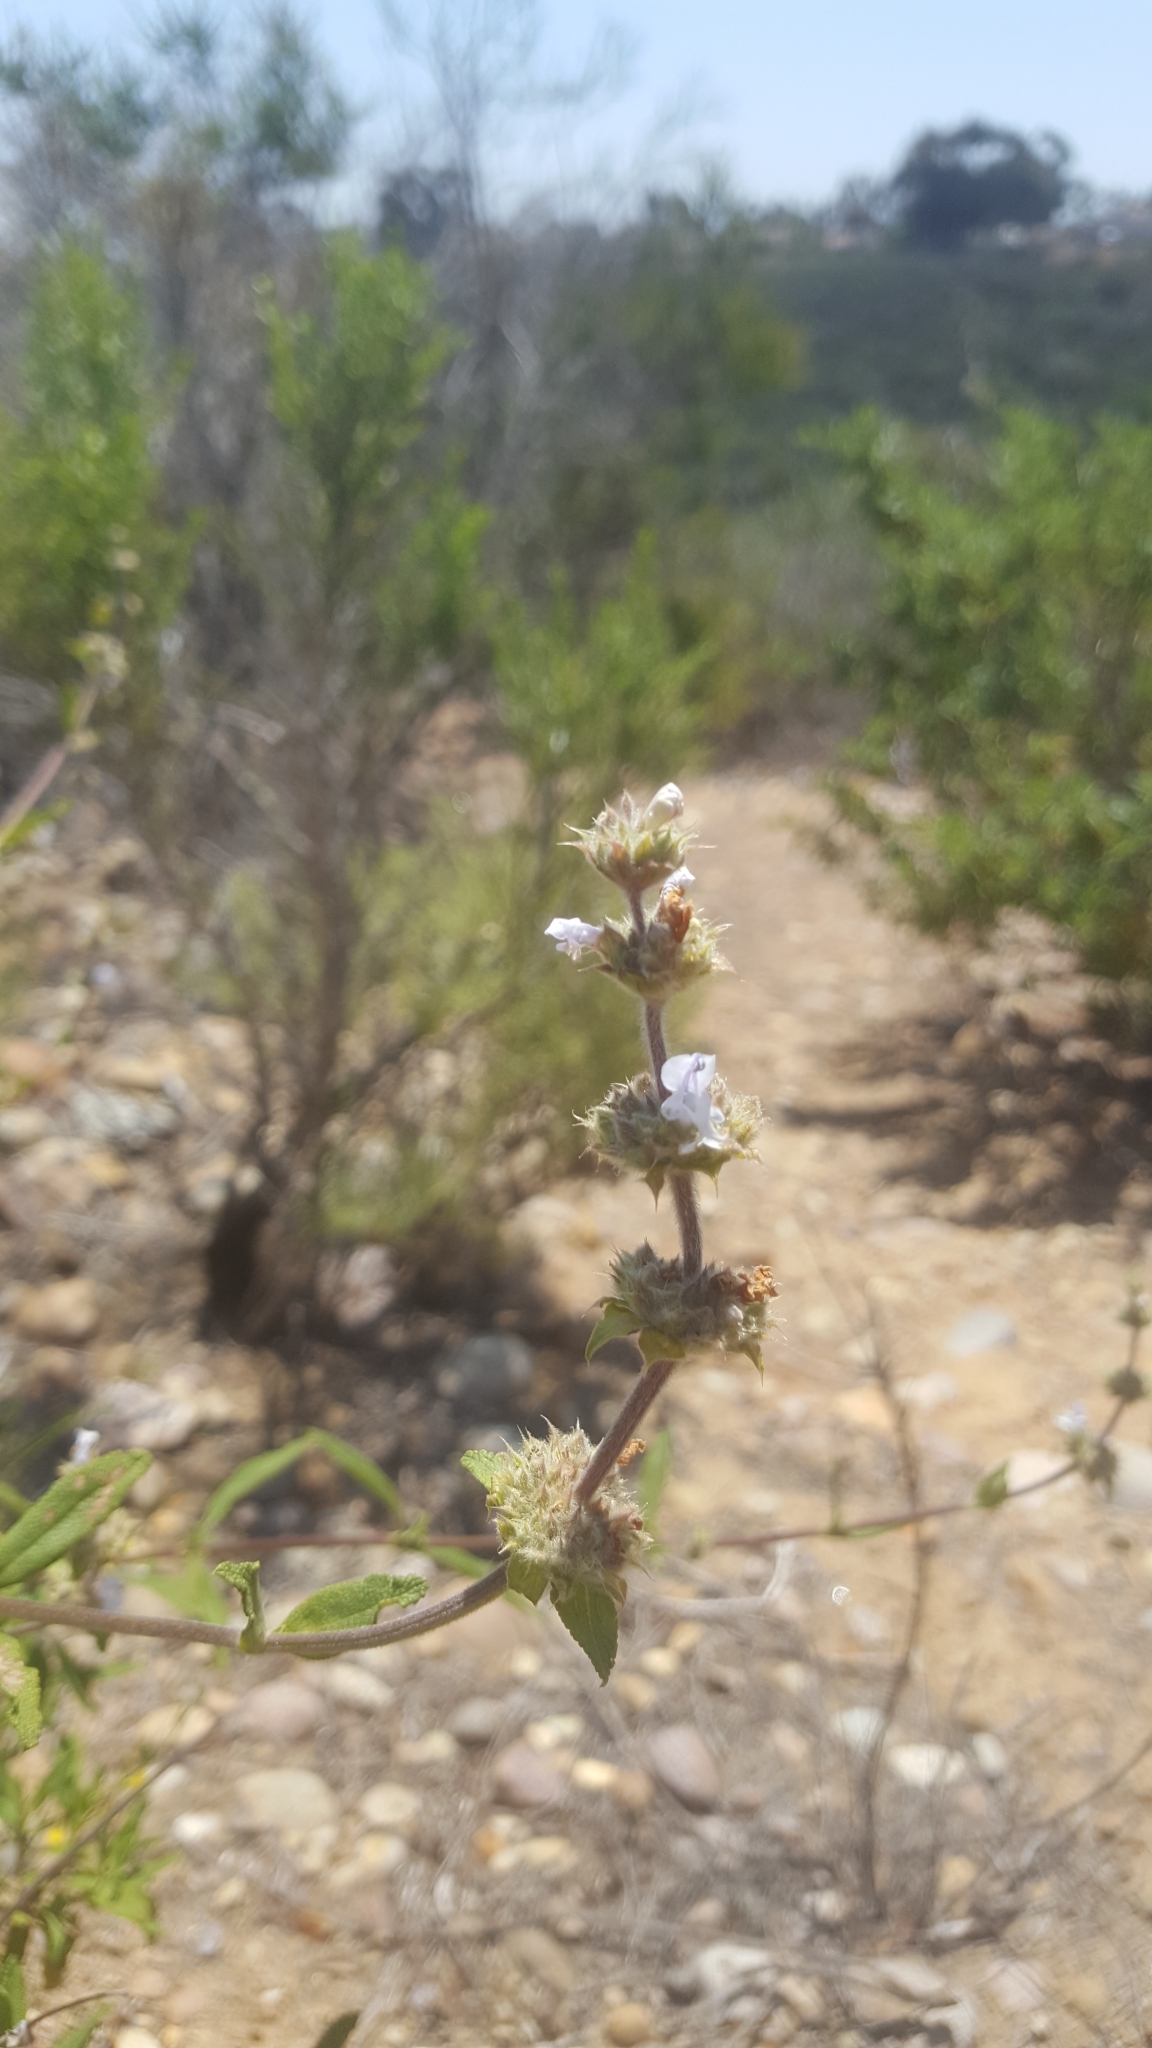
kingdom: Plantae
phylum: Tracheophyta
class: Magnoliopsida
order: Lamiales
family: Lamiaceae
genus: Salvia
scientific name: Salvia mellifera
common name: Black sage
